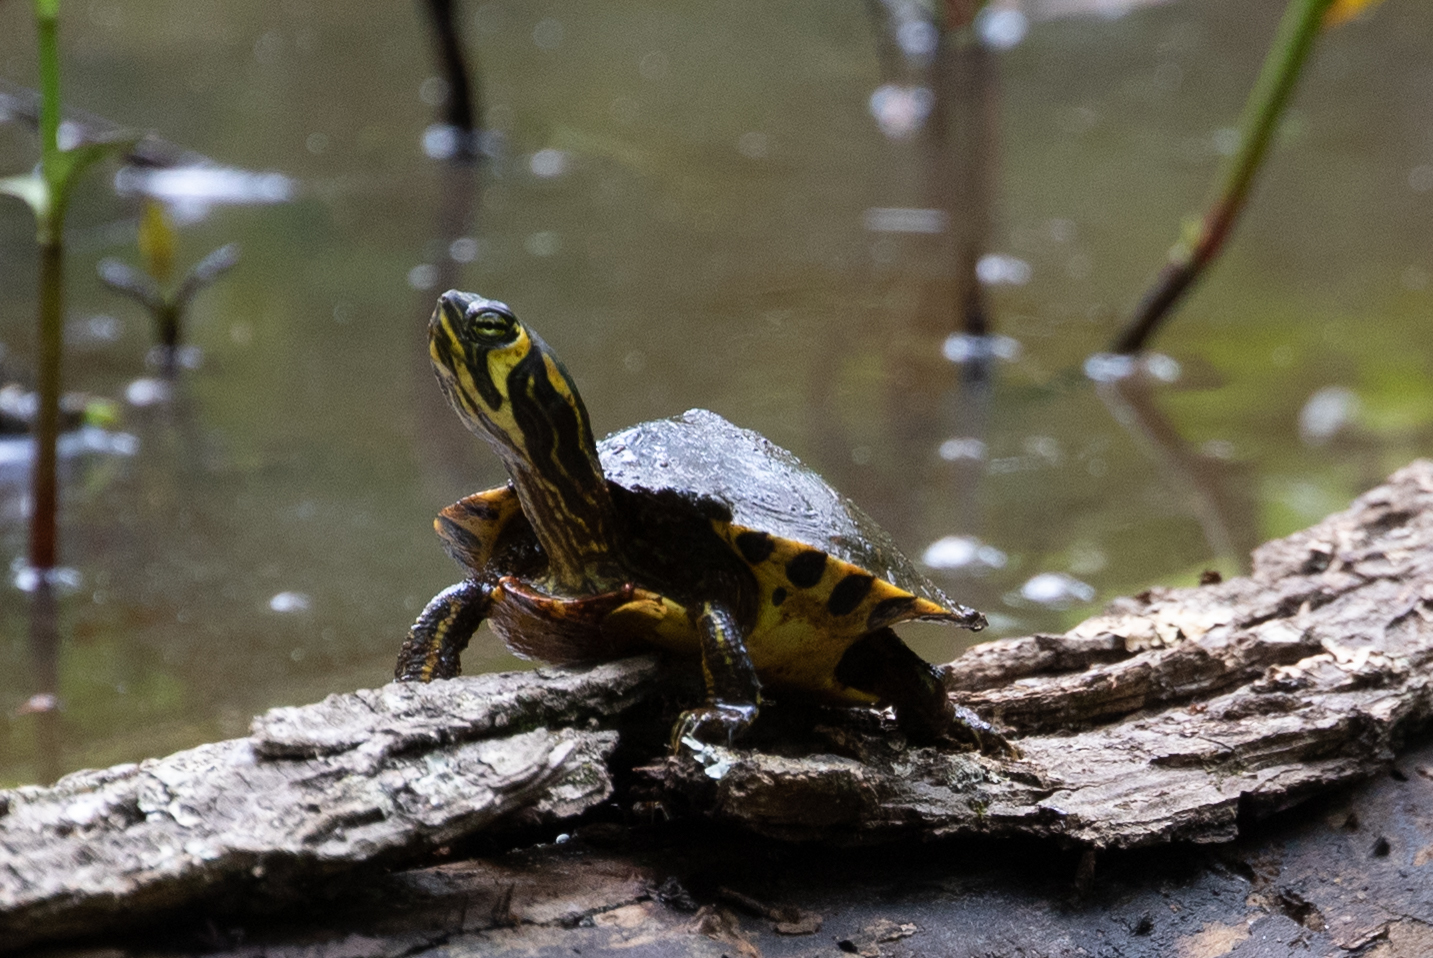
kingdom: Animalia
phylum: Chordata
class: Testudines
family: Emydidae
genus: Trachemys
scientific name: Trachemys scripta
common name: Slider
